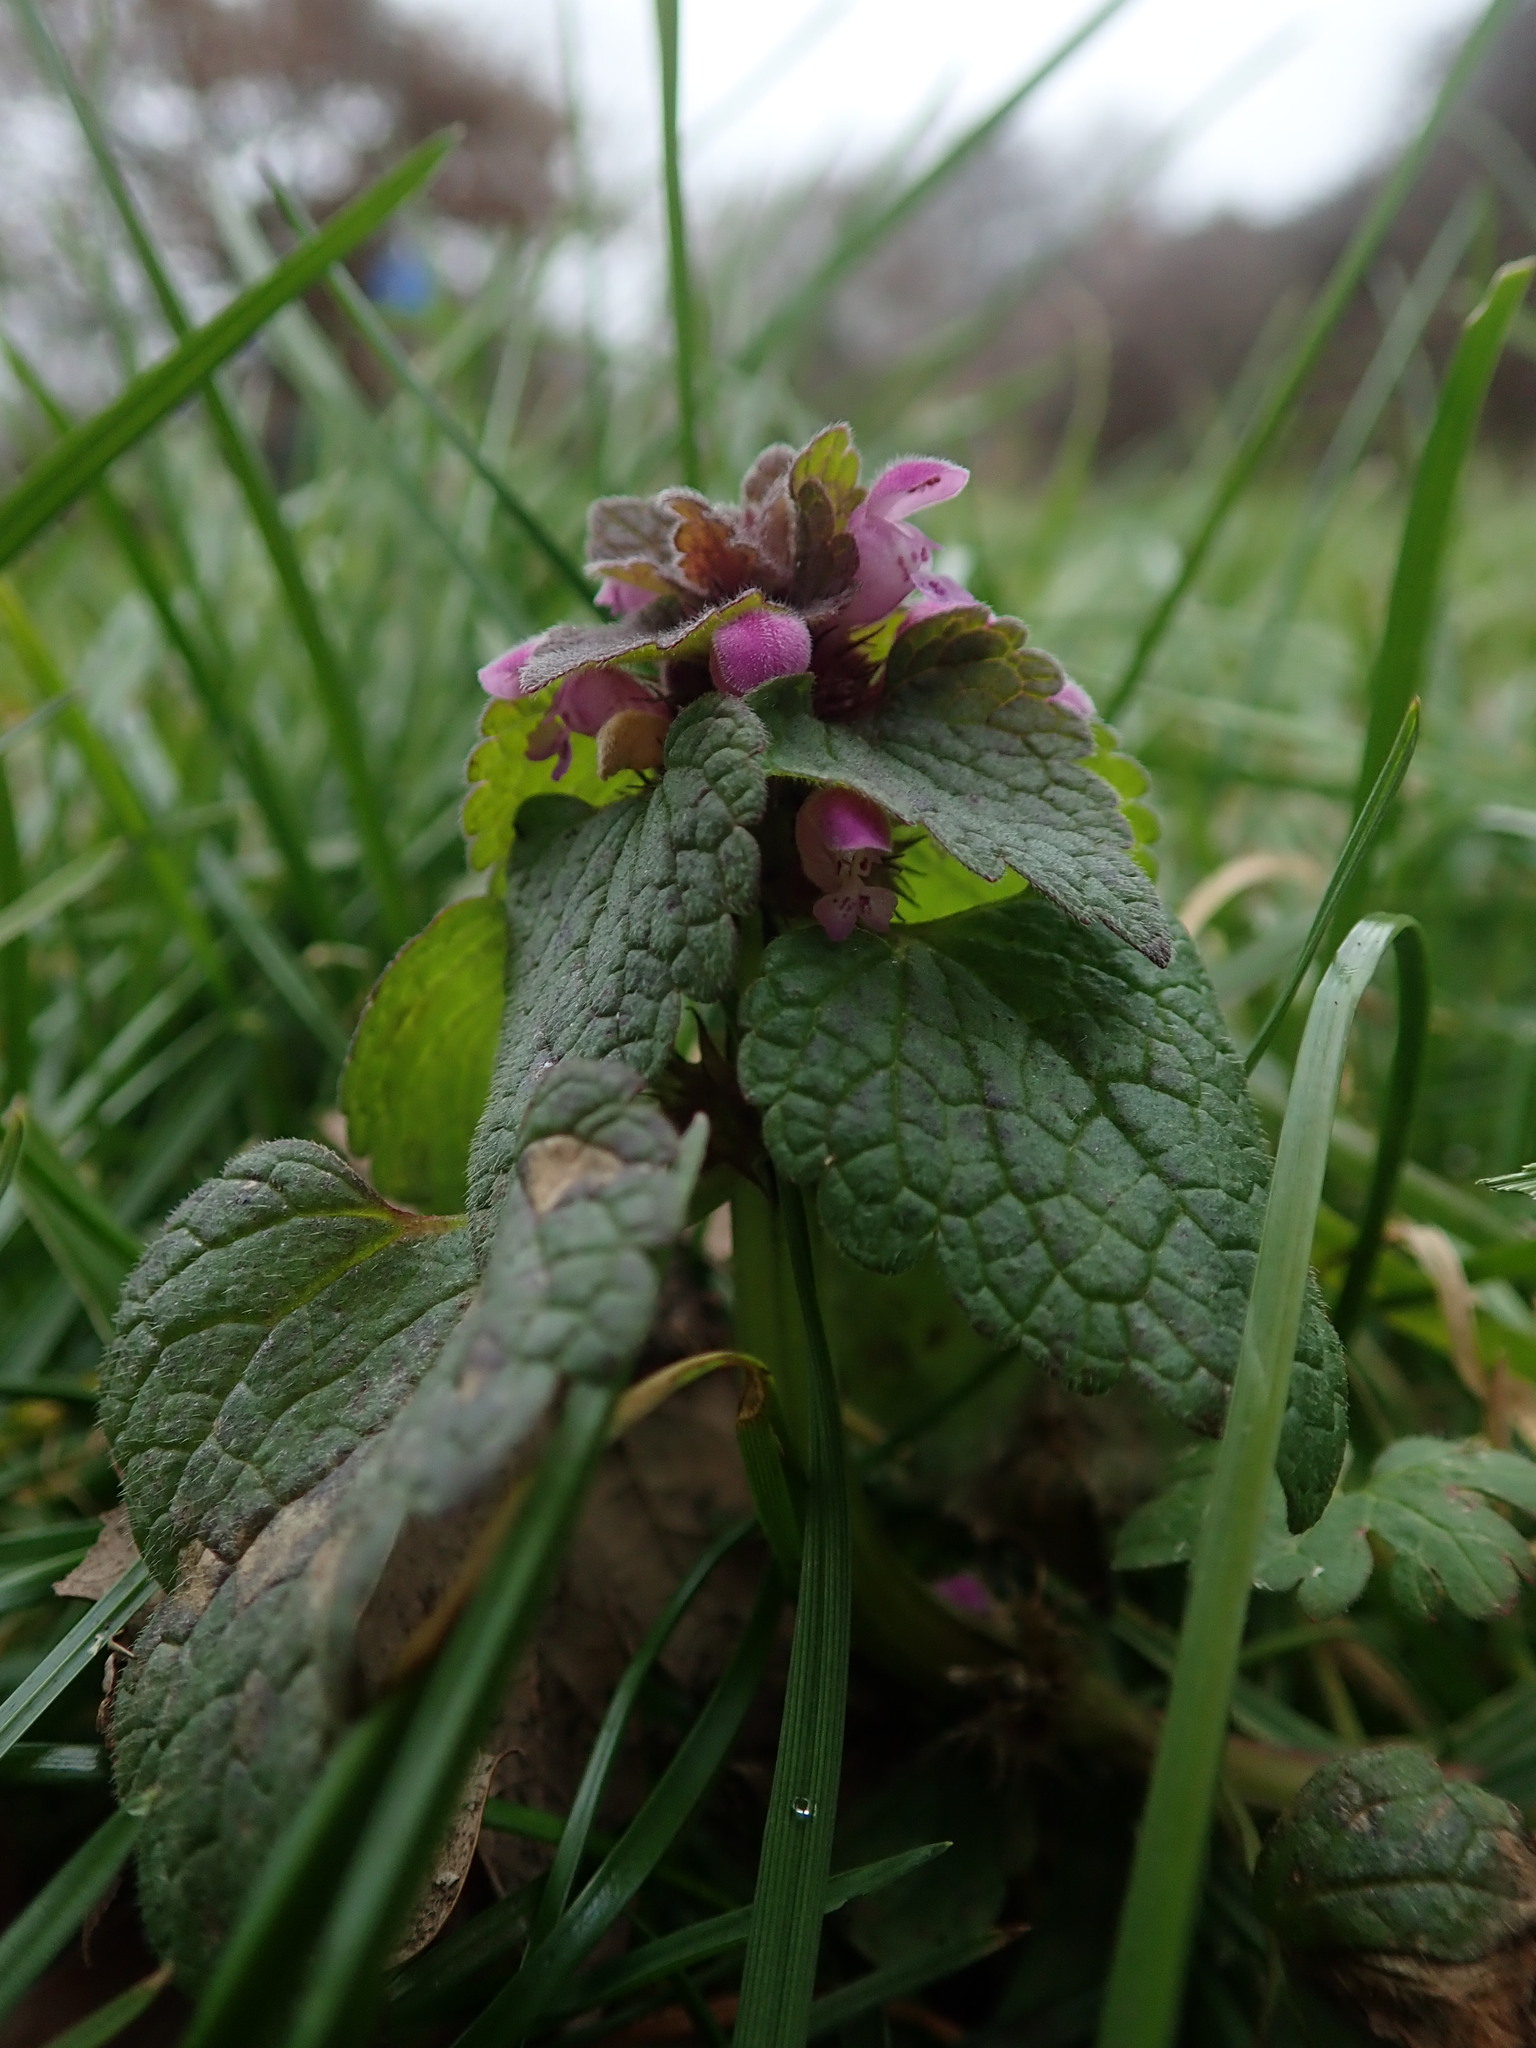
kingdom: Plantae
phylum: Tracheophyta
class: Magnoliopsida
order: Lamiales
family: Lamiaceae
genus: Lamium
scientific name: Lamium purpureum
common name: Red dead-nettle
